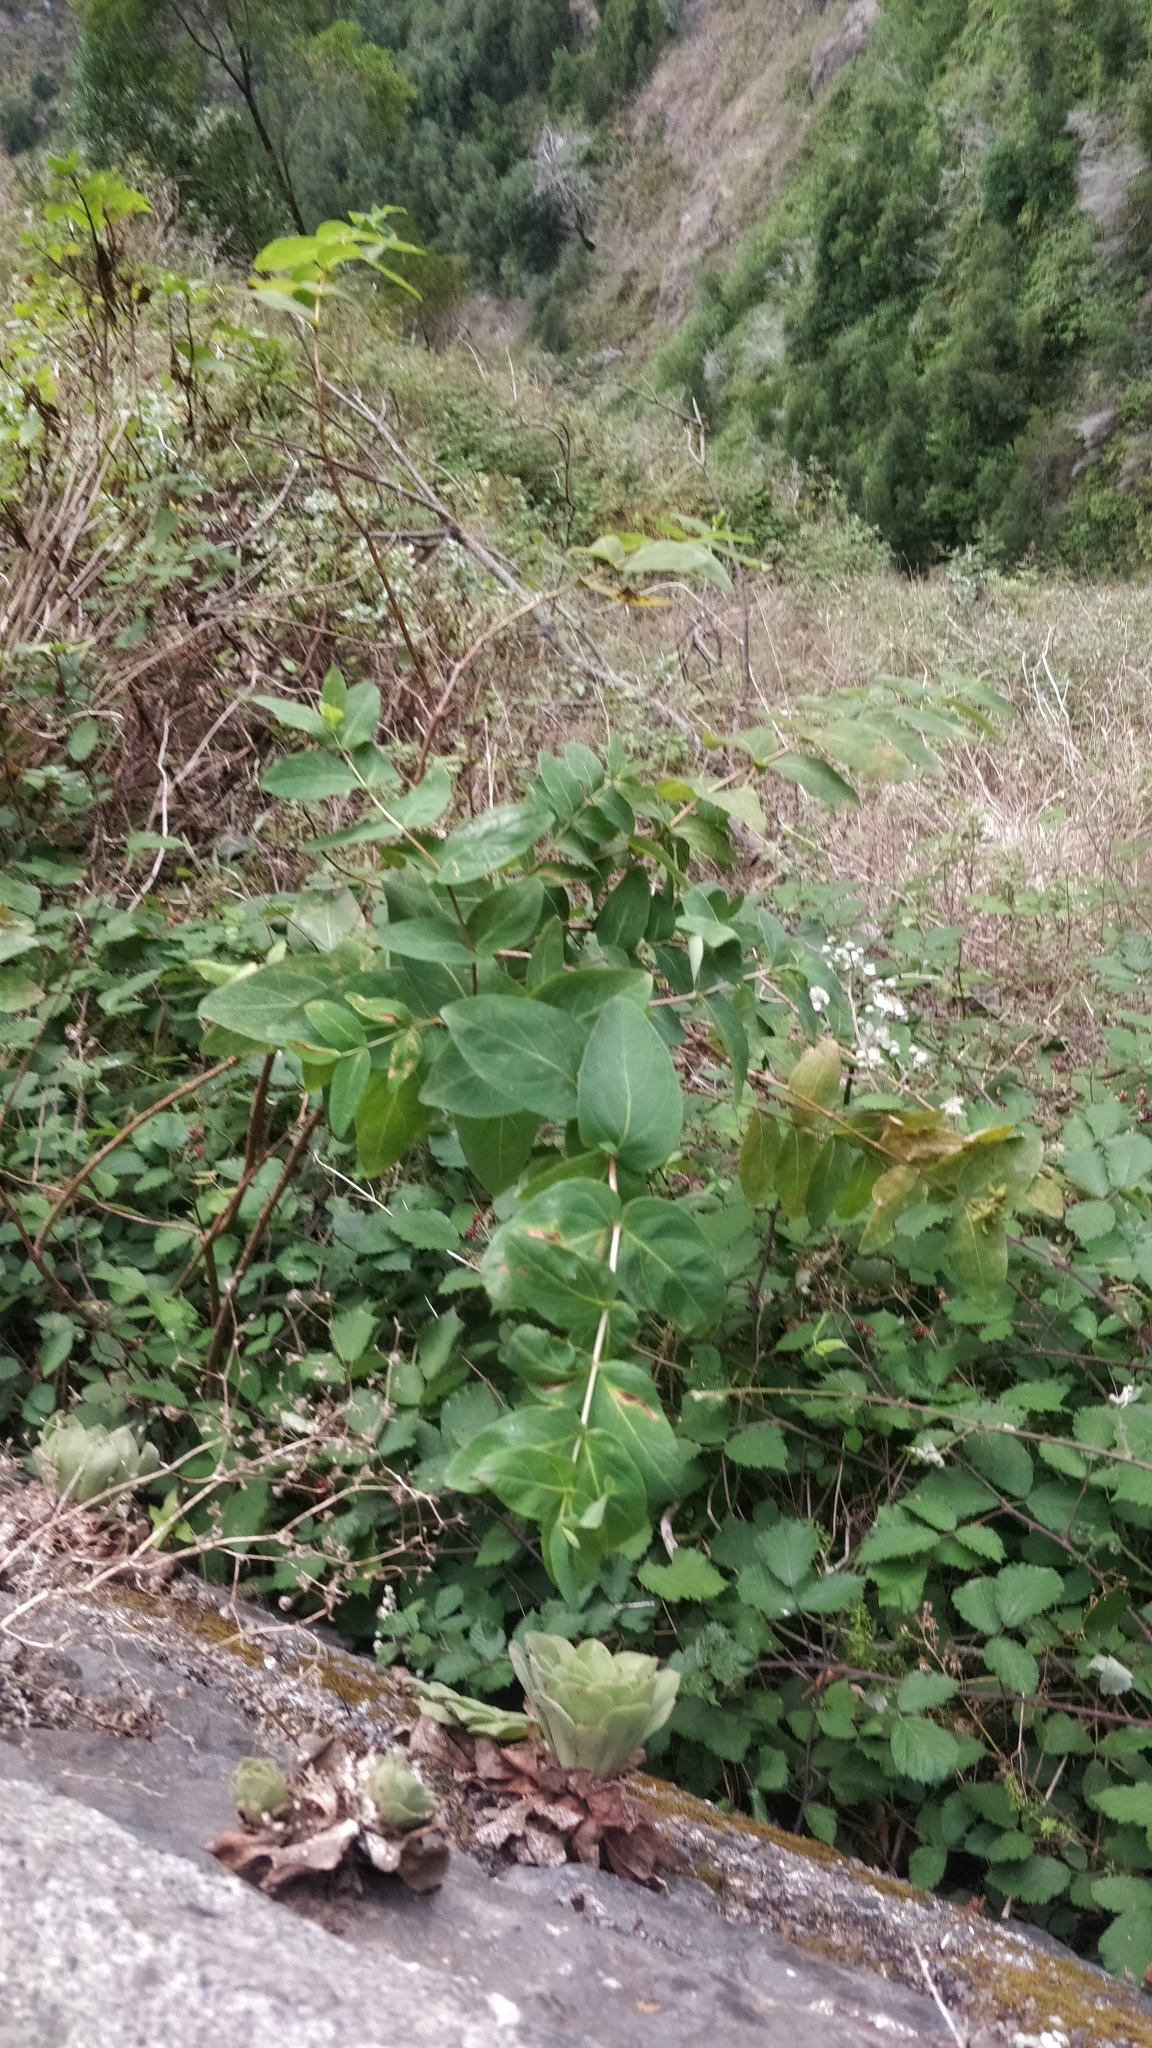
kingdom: Plantae
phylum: Tracheophyta
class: Magnoliopsida
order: Malpighiales
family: Hypericaceae
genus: Hypericum
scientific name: Hypericum grandifolium
